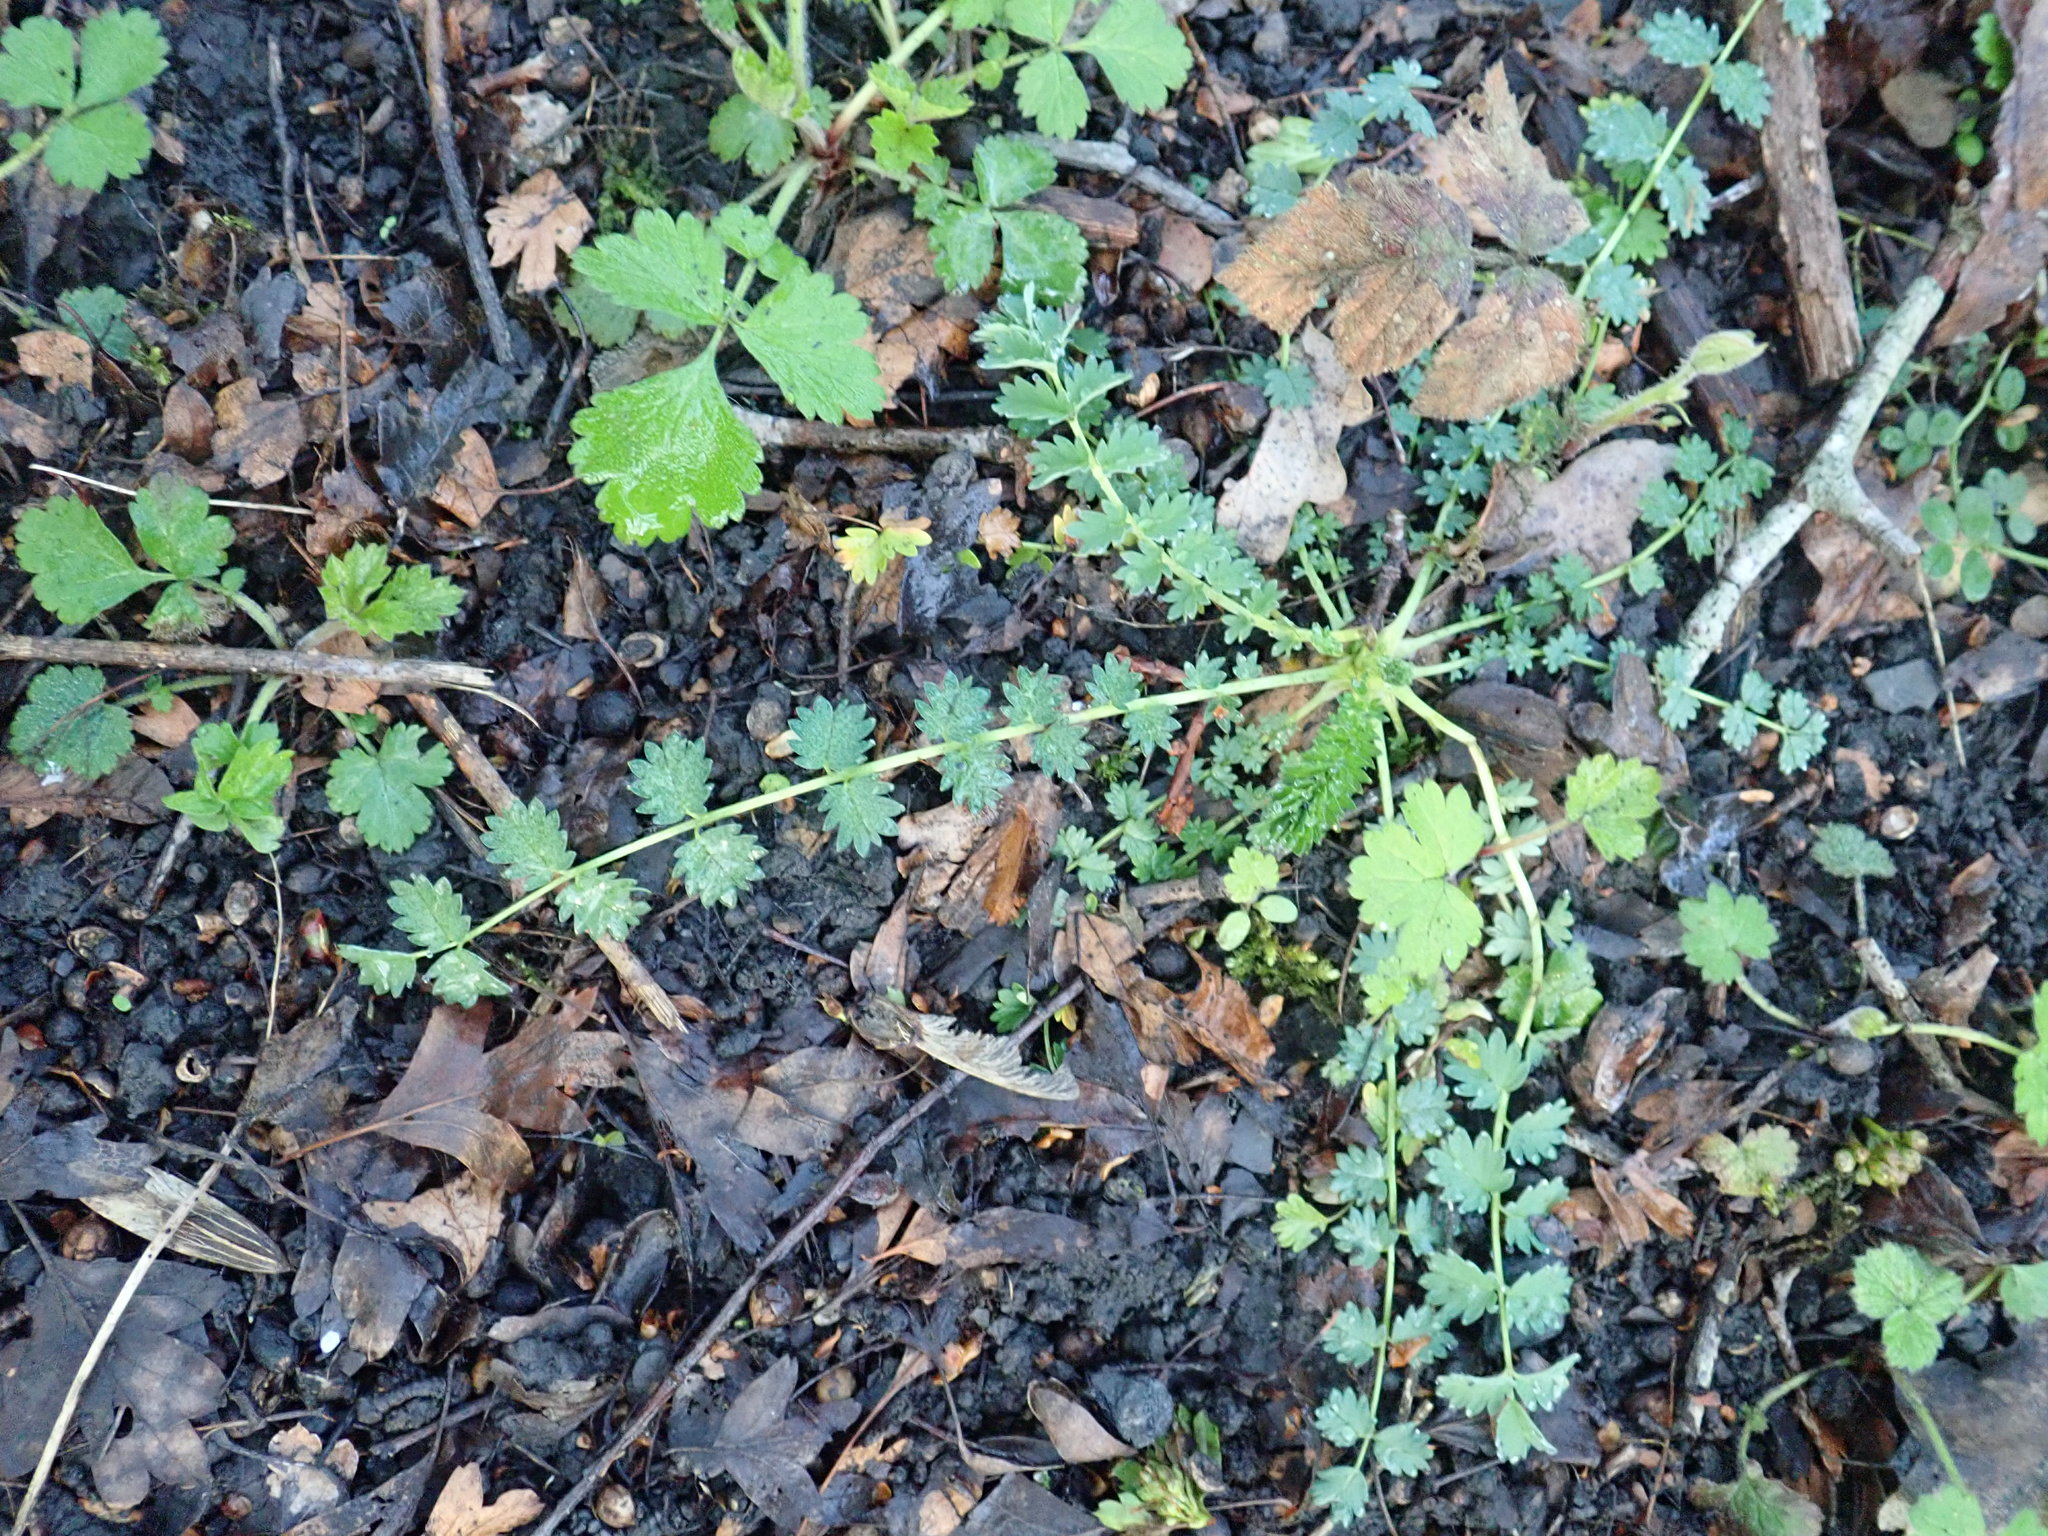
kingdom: Plantae
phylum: Tracheophyta
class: Magnoliopsida
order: Rosales
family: Rosaceae
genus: Poterium
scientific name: Poterium sanguisorba
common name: Salad burnet
